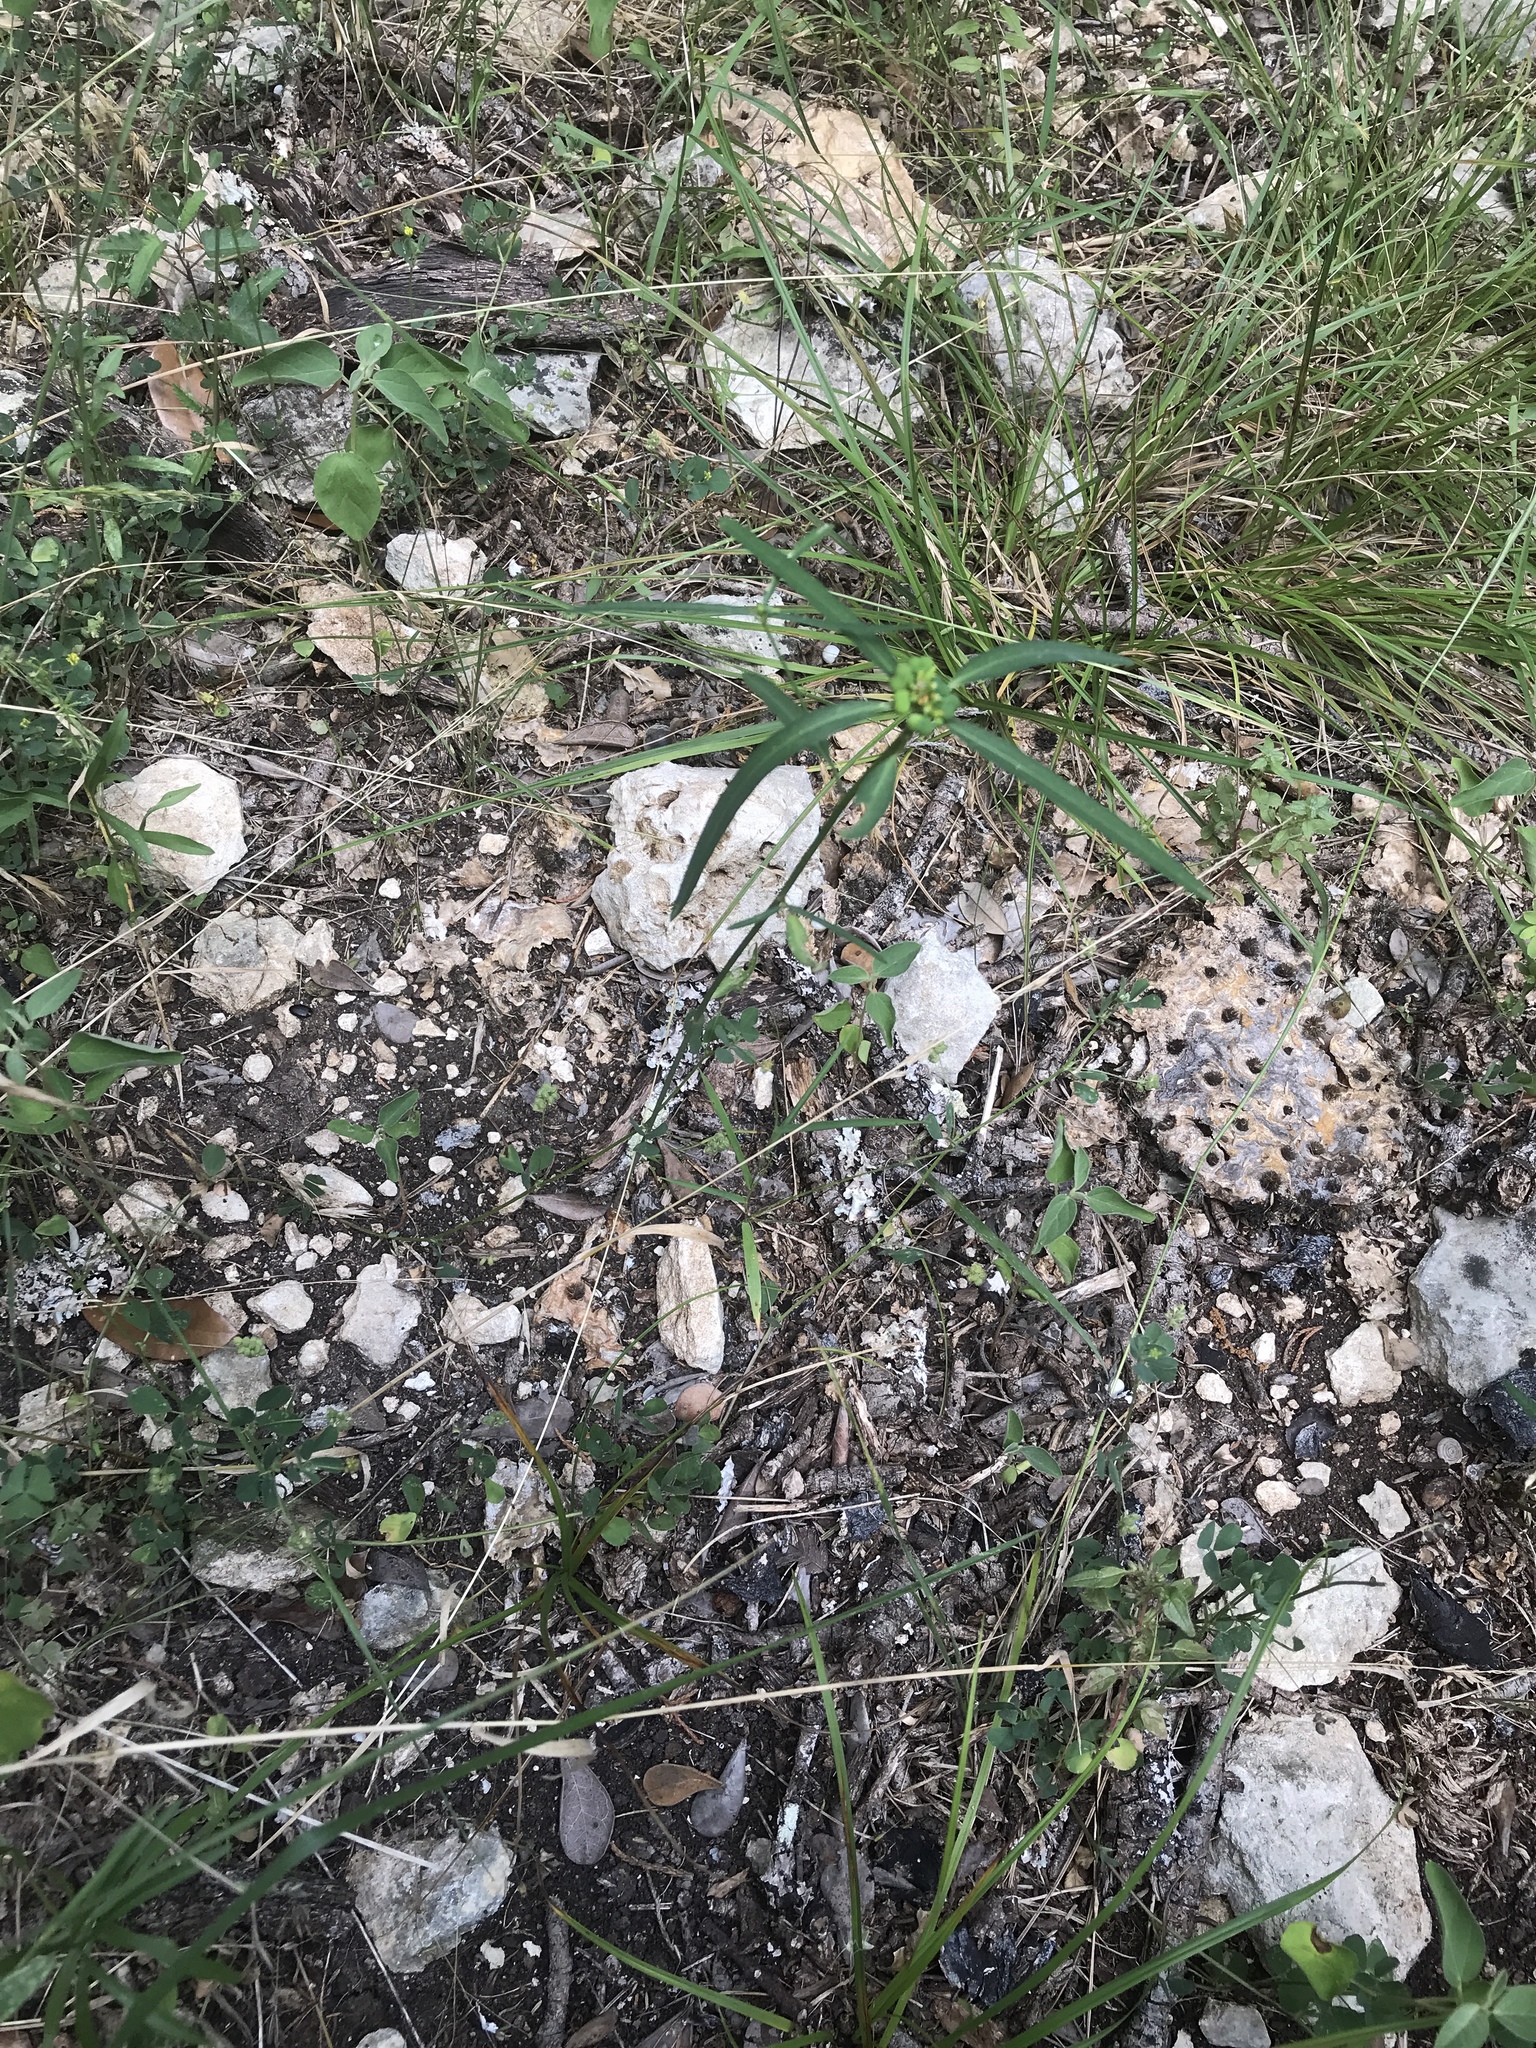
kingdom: Plantae
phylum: Tracheophyta
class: Magnoliopsida
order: Malpighiales
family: Euphorbiaceae
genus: Euphorbia
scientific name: Euphorbia heterophylla
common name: Mexican fireplant
